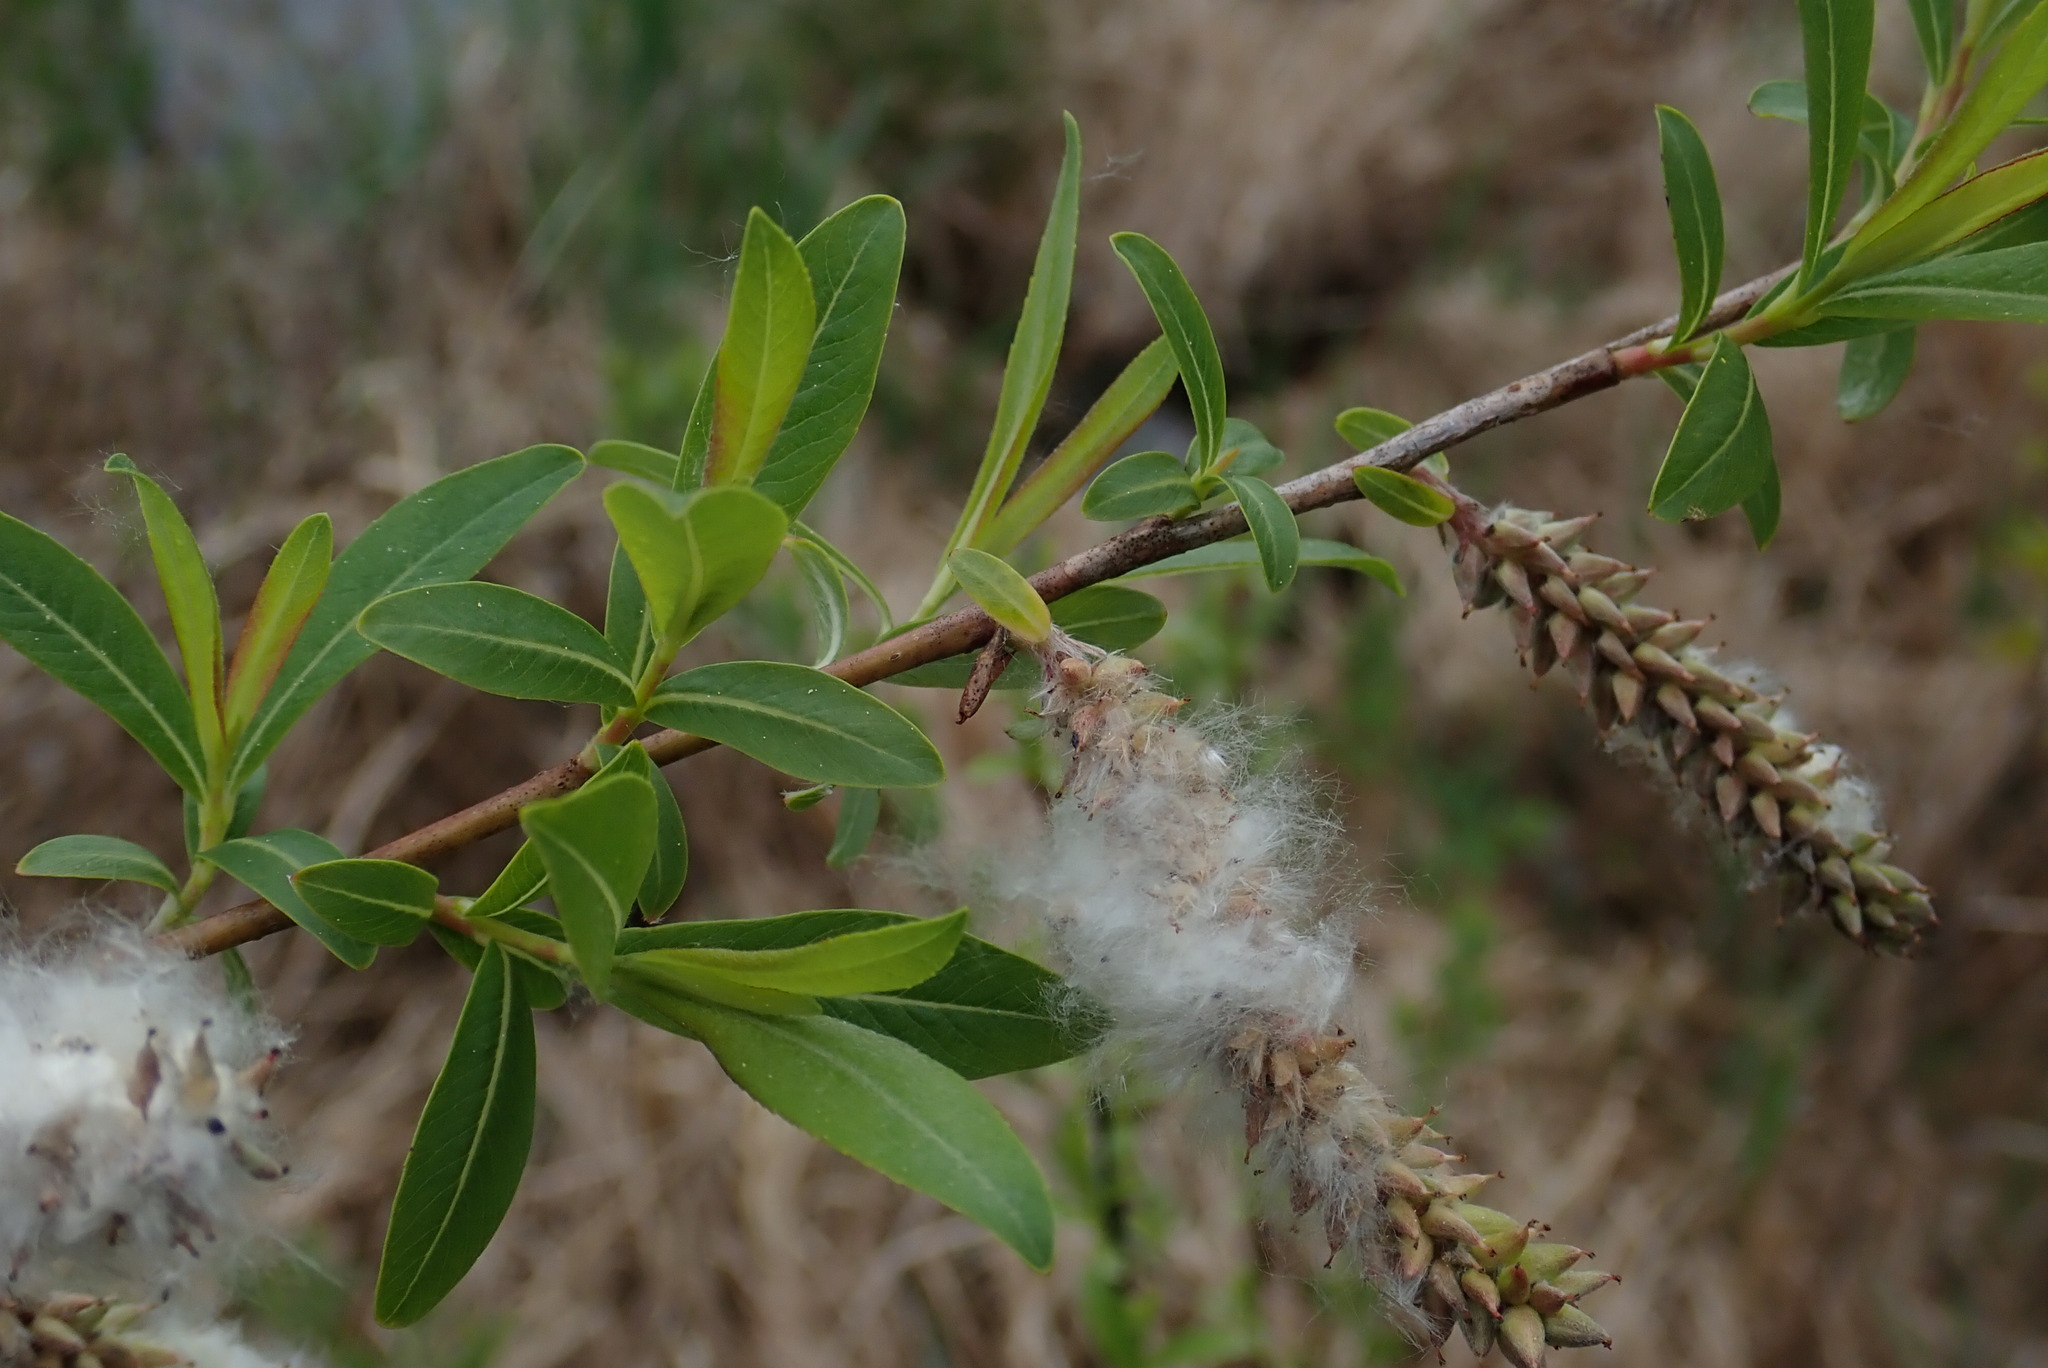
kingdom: Plantae
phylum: Tracheophyta
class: Magnoliopsida
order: Malpighiales
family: Salicaceae
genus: Salix
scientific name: Salix purpurea
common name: Purple willow
